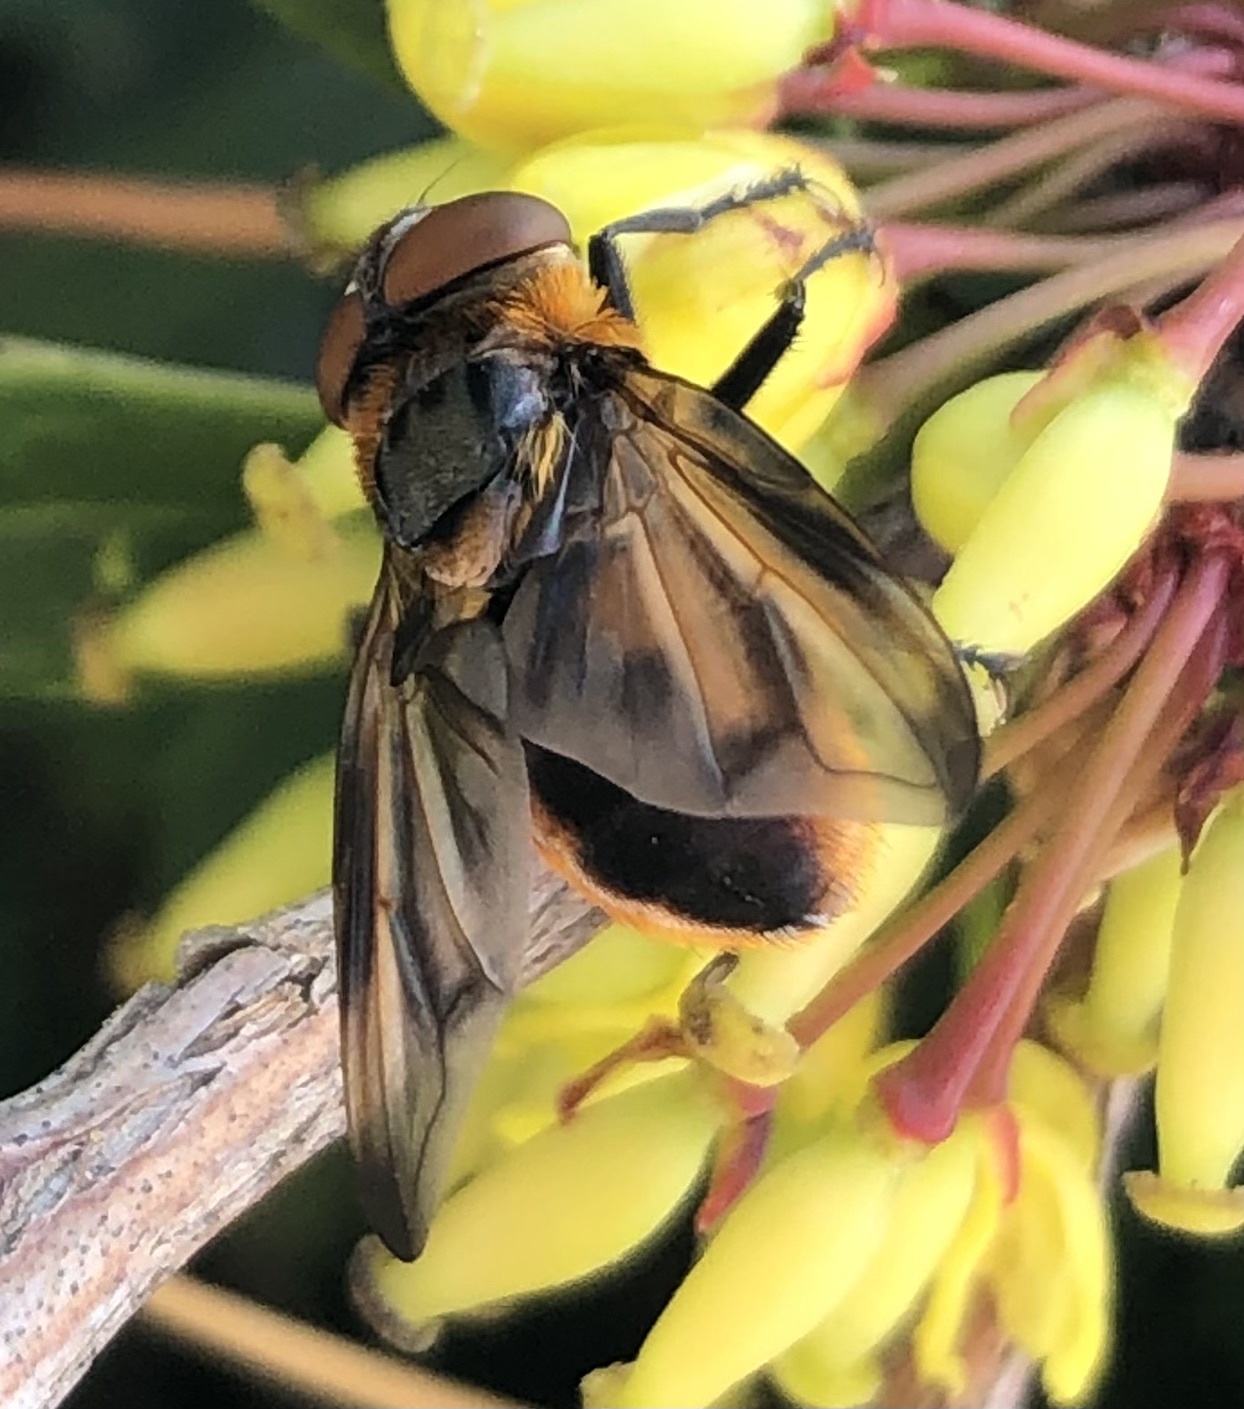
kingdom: Animalia
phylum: Arthropoda
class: Insecta
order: Diptera
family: Tachinidae
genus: Phasia
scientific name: Phasia hemiptera
